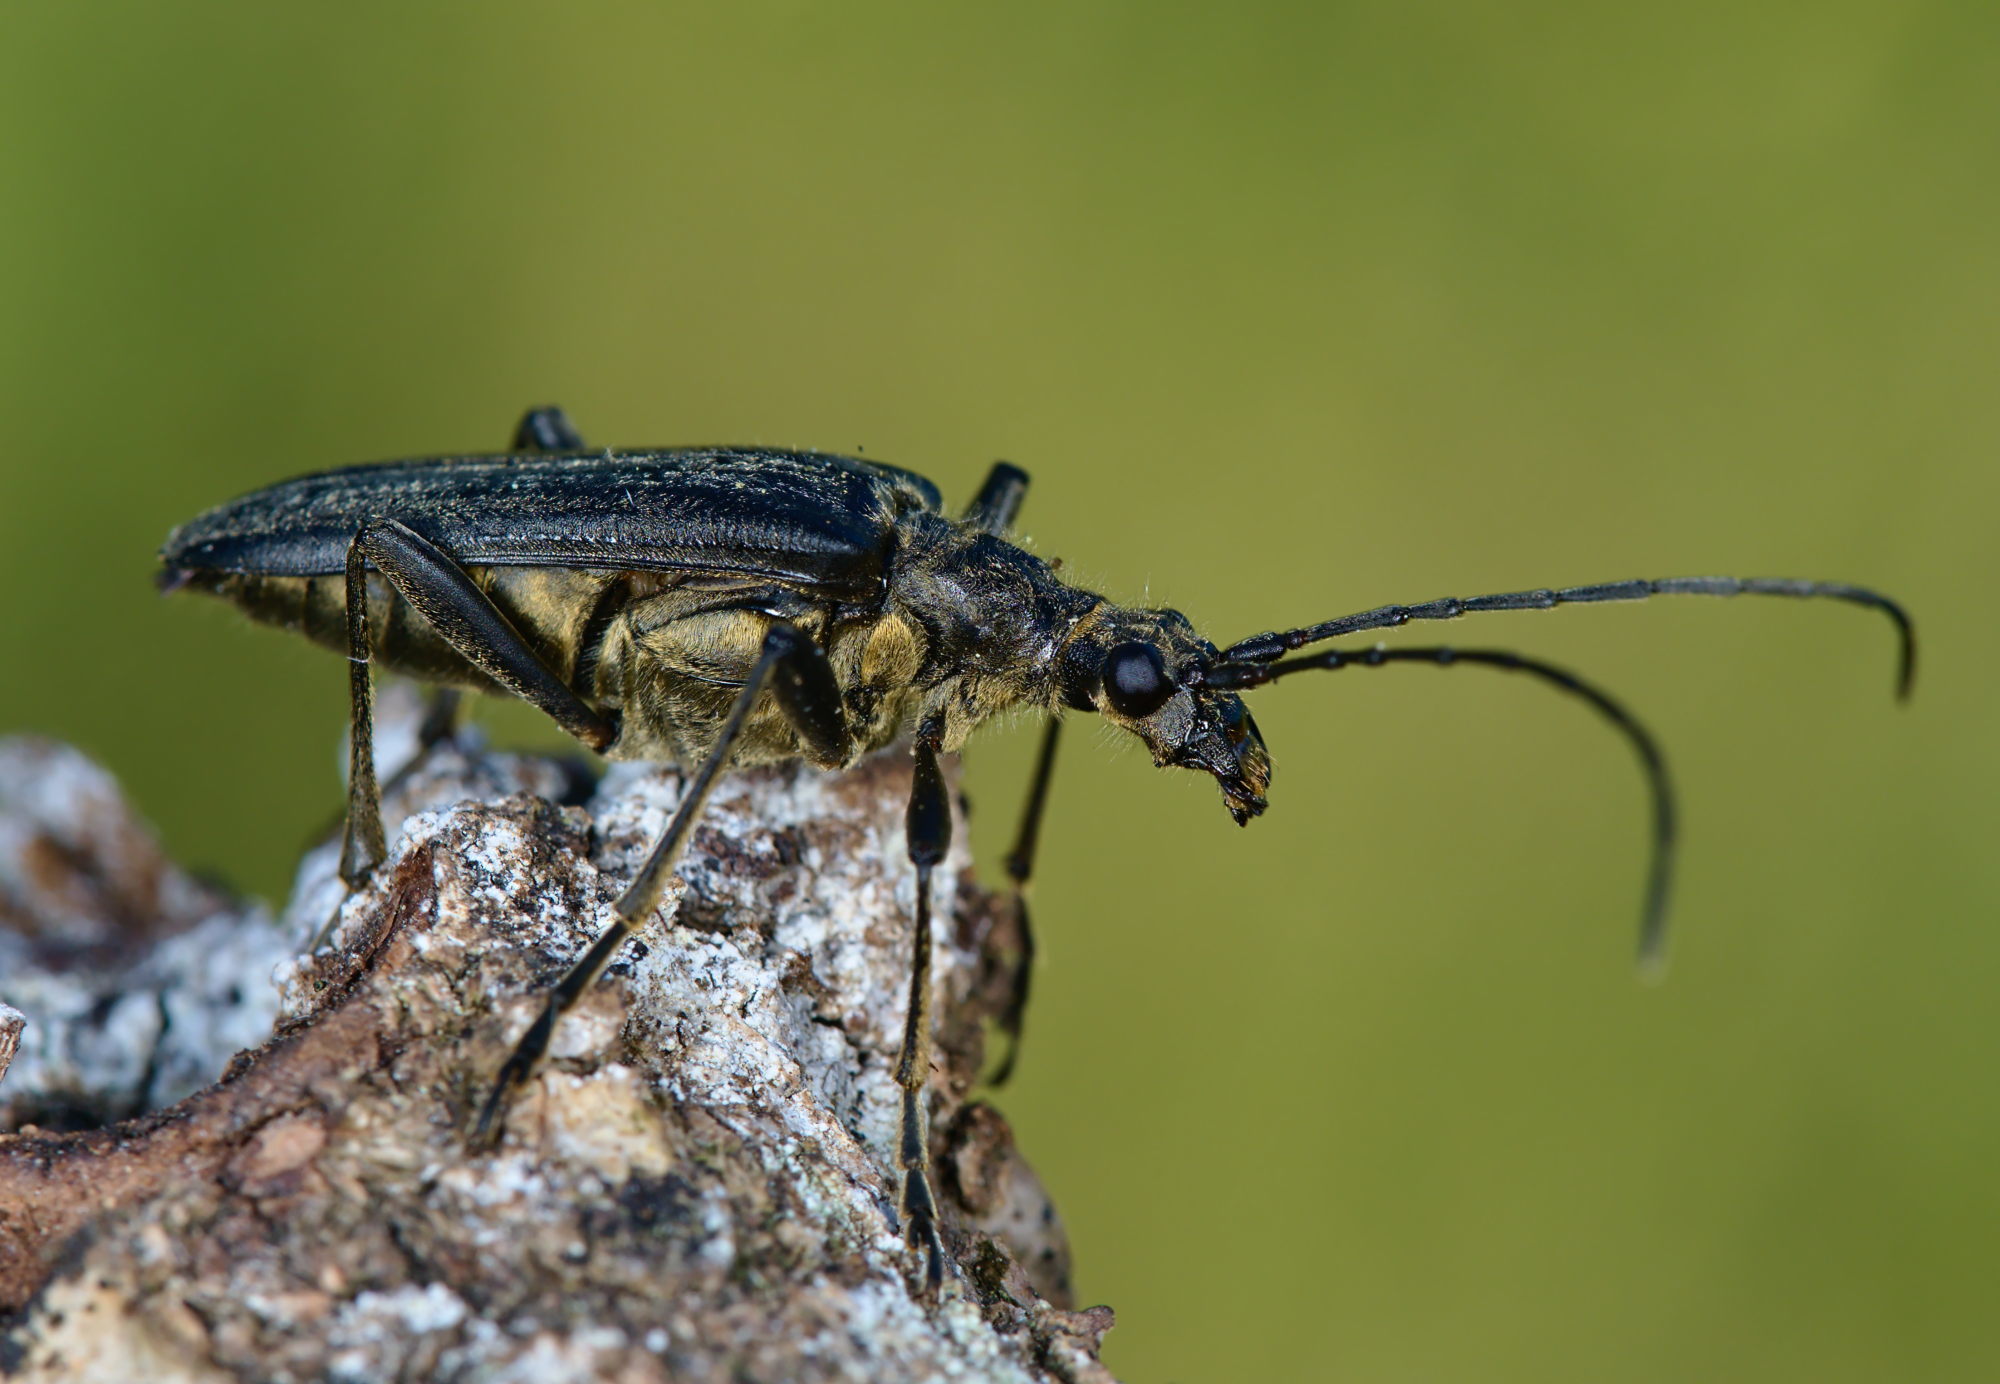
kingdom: Animalia
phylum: Arthropoda
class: Insecta
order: Coleoptera
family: Cerambycidae
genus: Stenocorus
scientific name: Stenocorus meridianus
